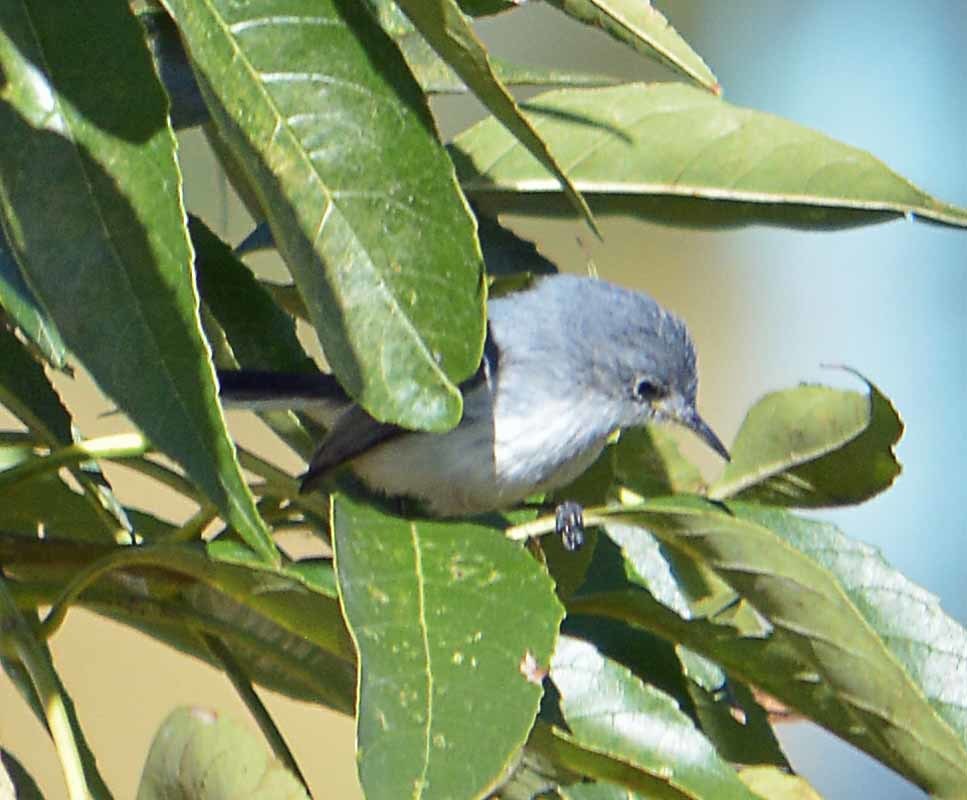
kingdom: Animalia
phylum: Chordata
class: Aves
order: Passeriformes
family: Polioptilidae
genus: Polioptila
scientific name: Polioptila caerulea
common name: Blue-gray gnatcatcher
